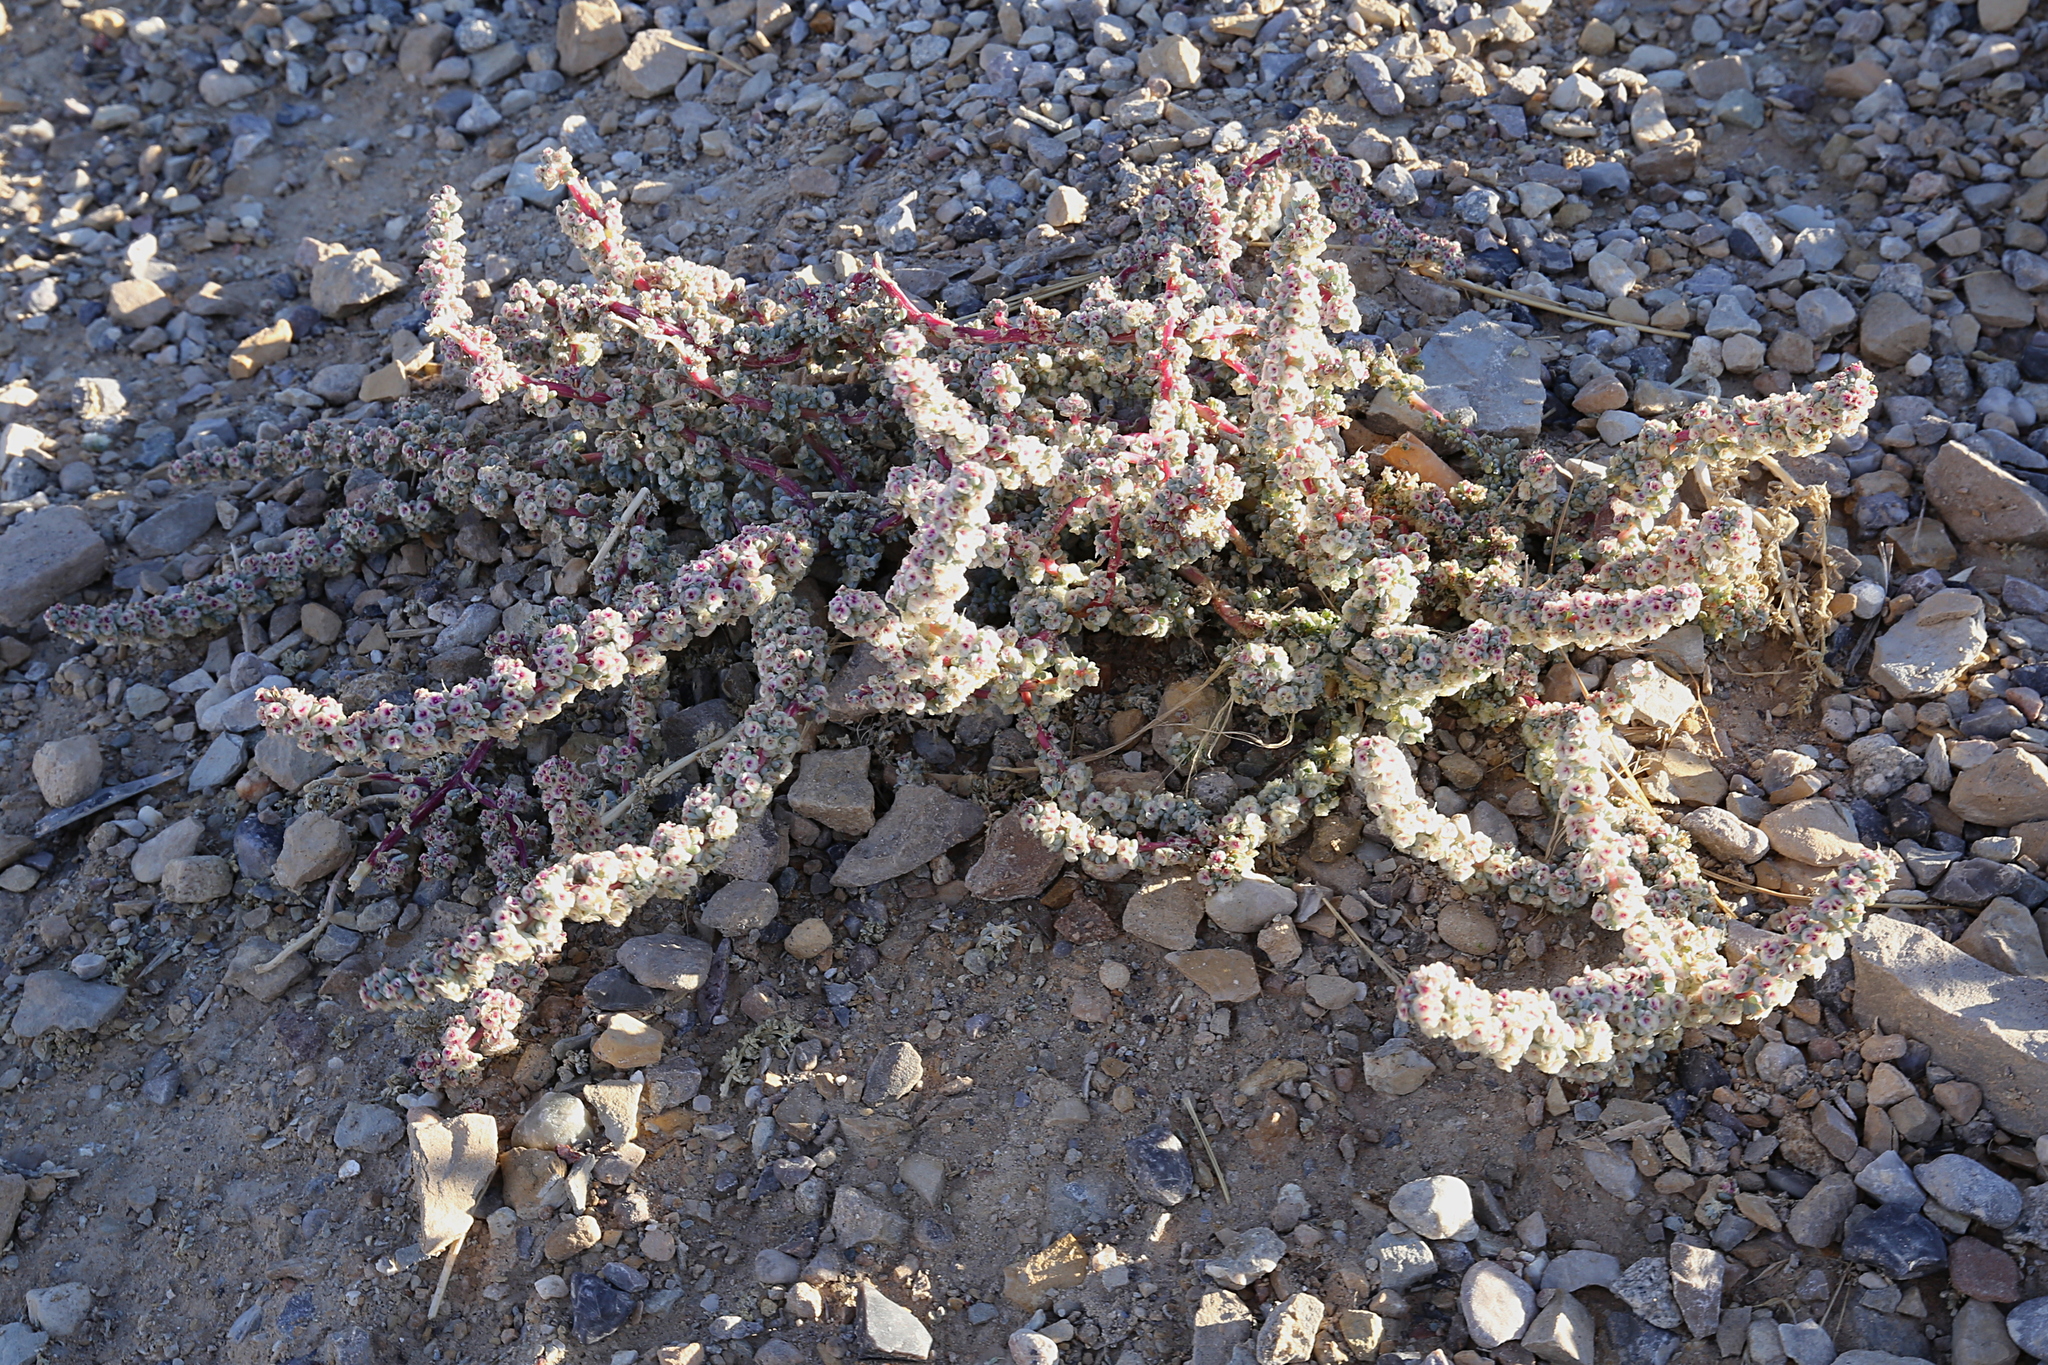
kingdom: Plantae
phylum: Tracheophyta
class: Magnoliopsida
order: Caryophyllales
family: Amaranthaceae
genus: Halogeton
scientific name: Halogeton glomeratus
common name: Saltlover
